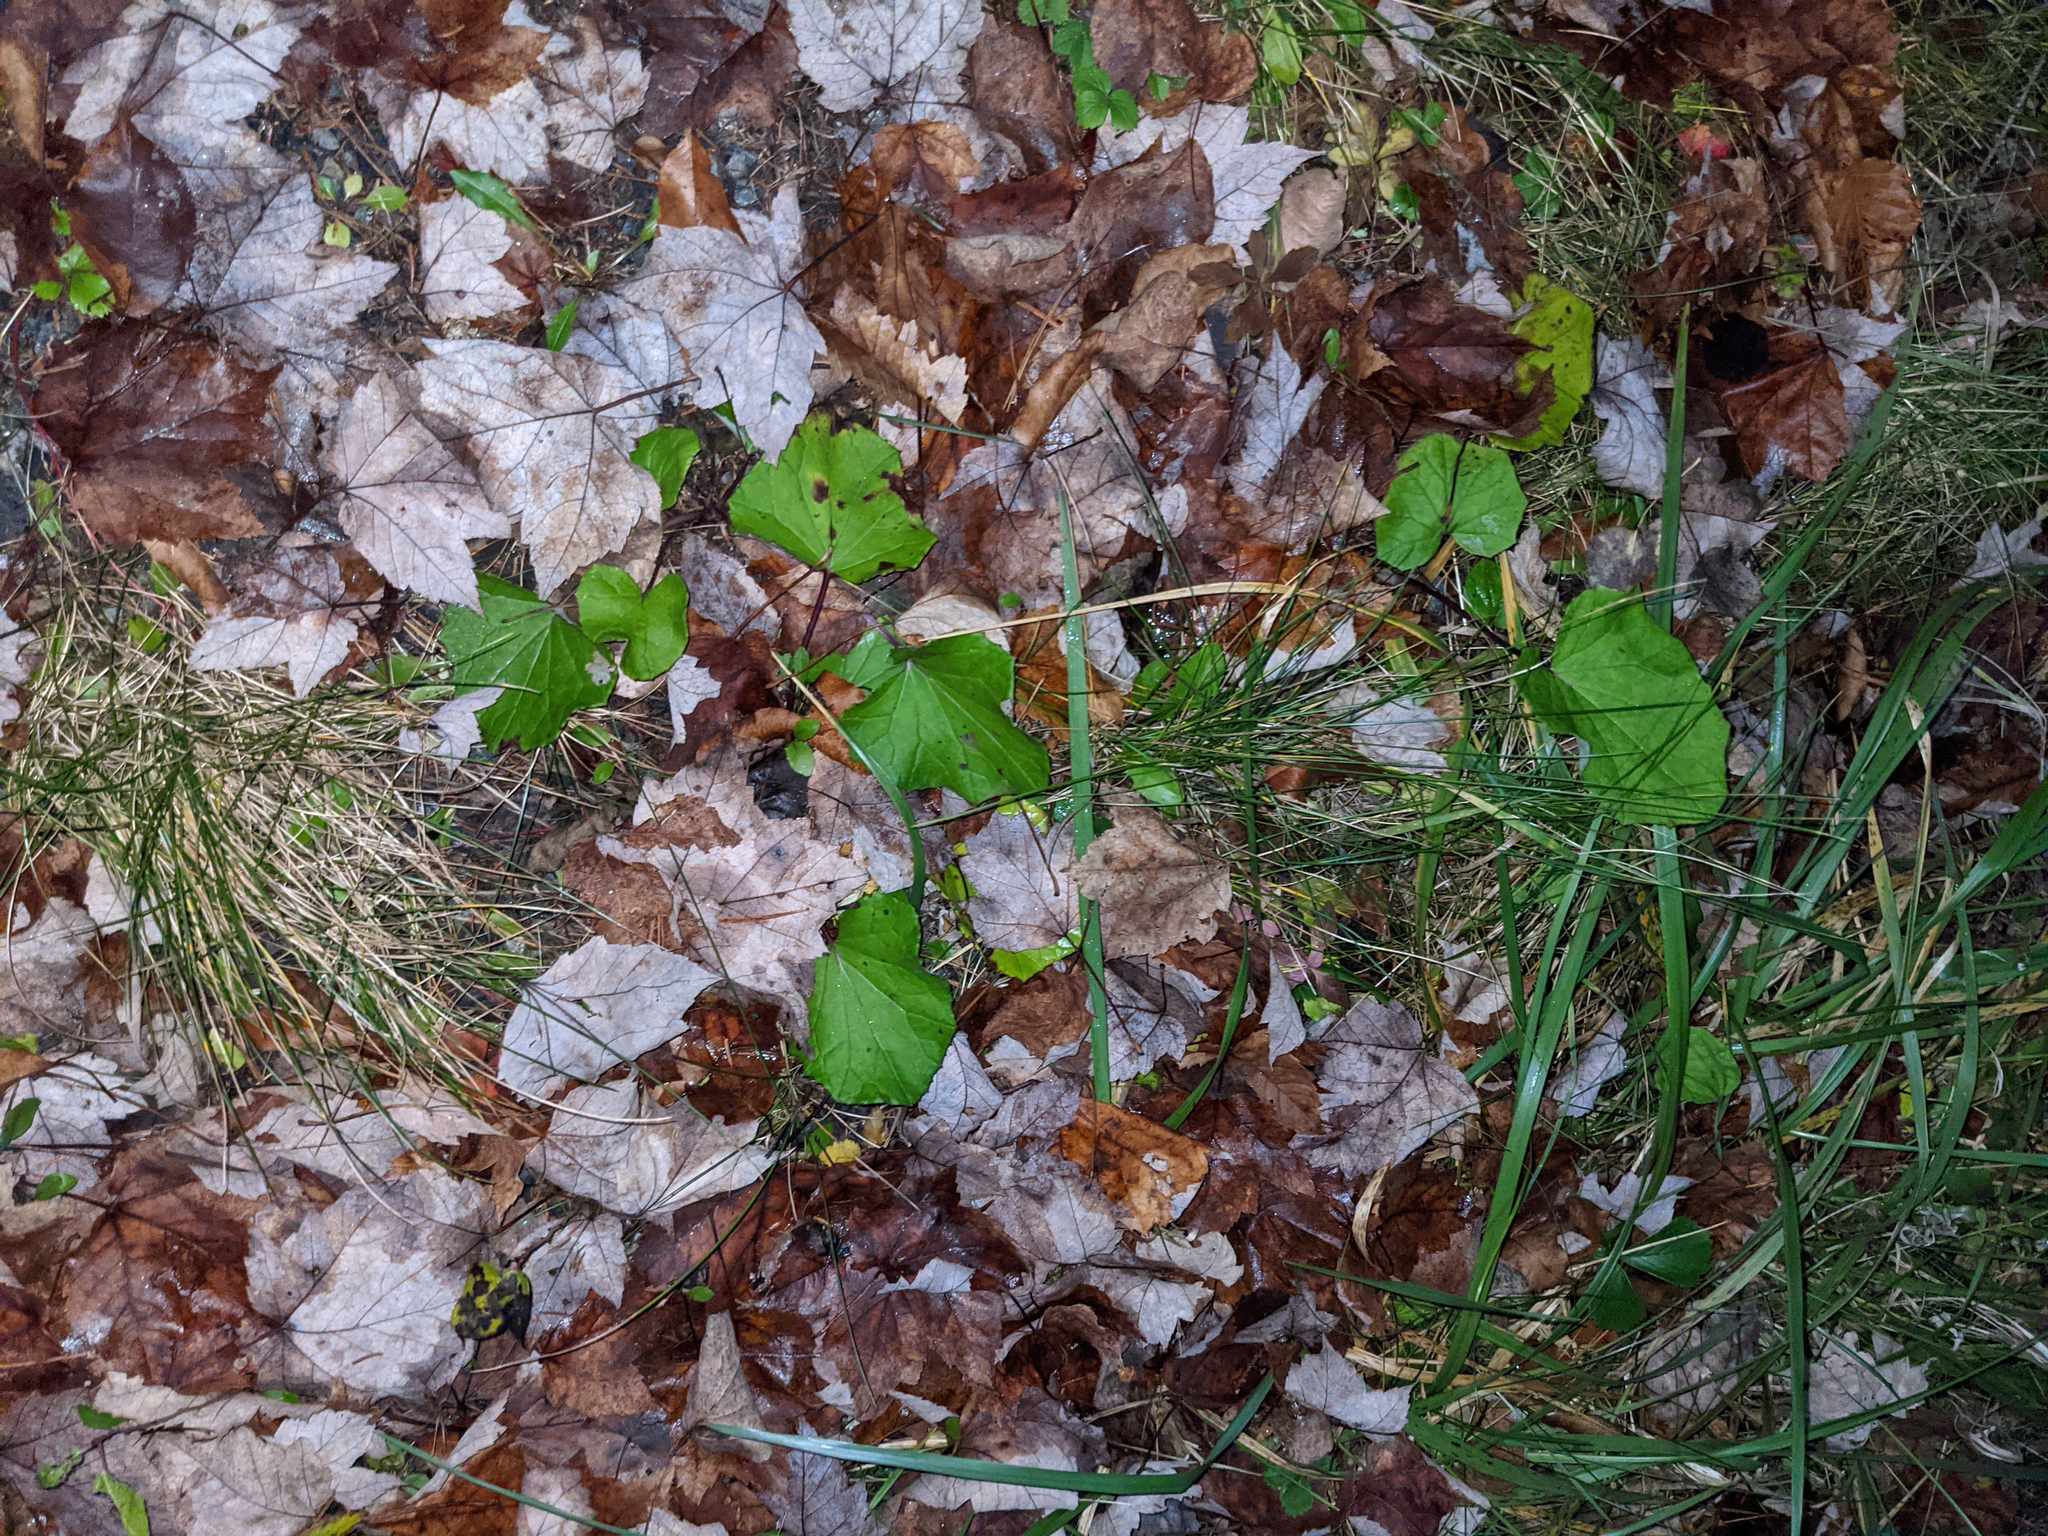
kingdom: Plantae
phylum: Tracheophyta
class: Magnoliopsida
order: Asterales
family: Asteraceae
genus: Tussilago
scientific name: Tussilago farfara
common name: Coltsfoot
